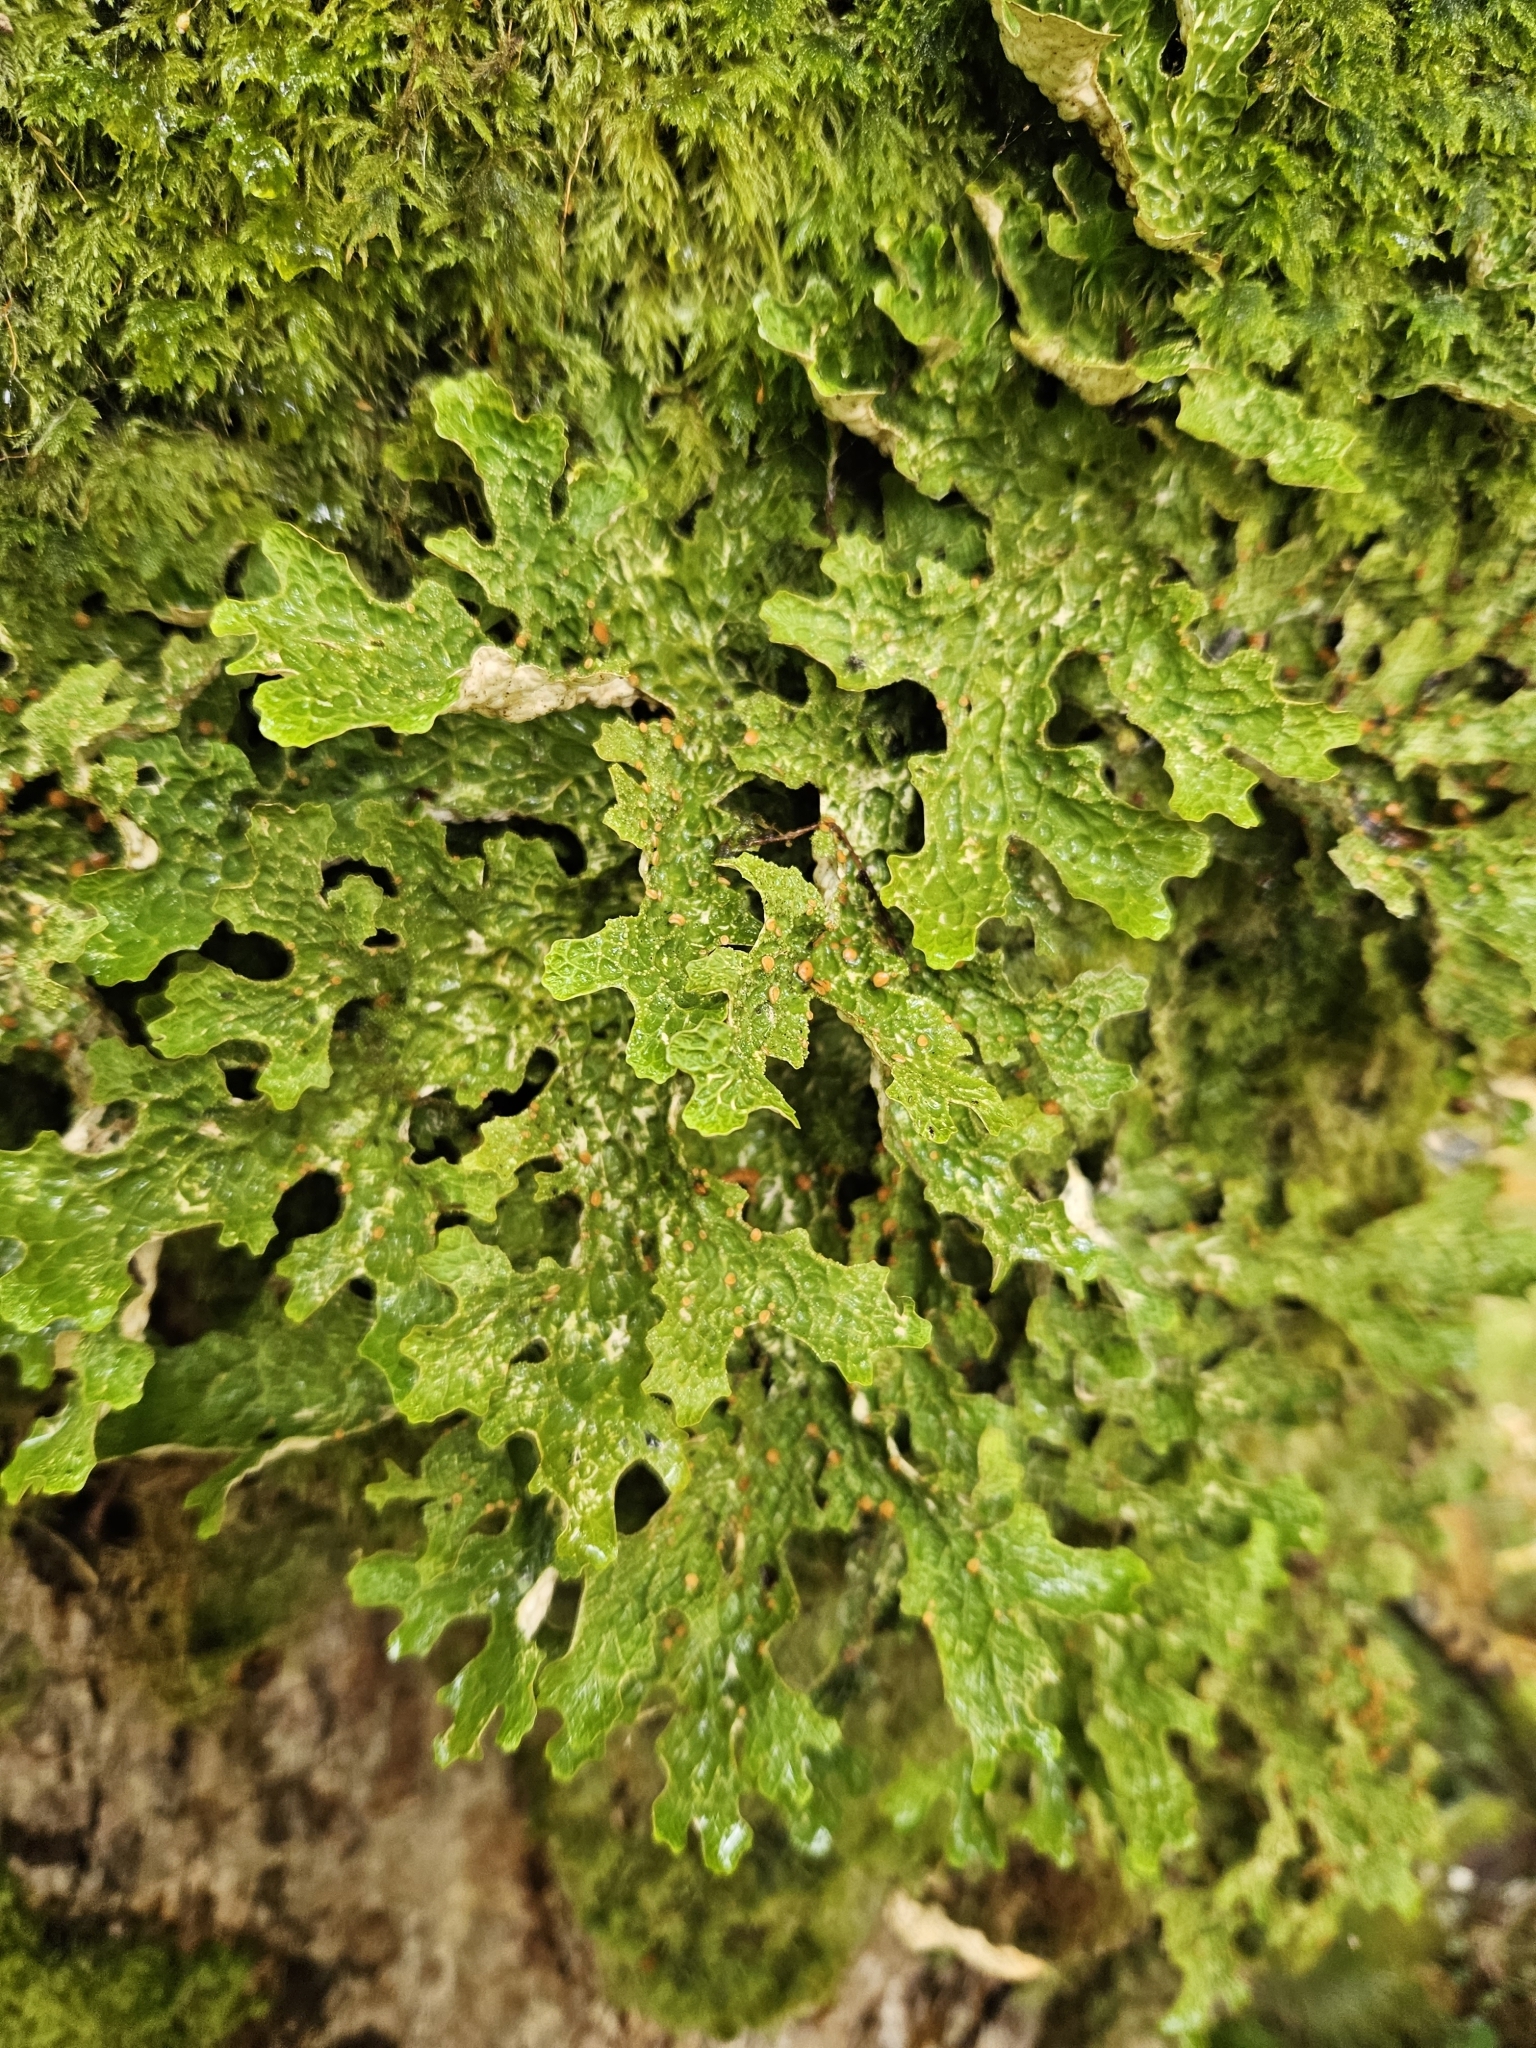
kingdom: Fungi
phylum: Ascomycota
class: Lecanoromycetes
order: Peltigerales
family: Lobariaceae
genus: Lobaria
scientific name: Lobaria pulmonaria
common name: Lungwort
